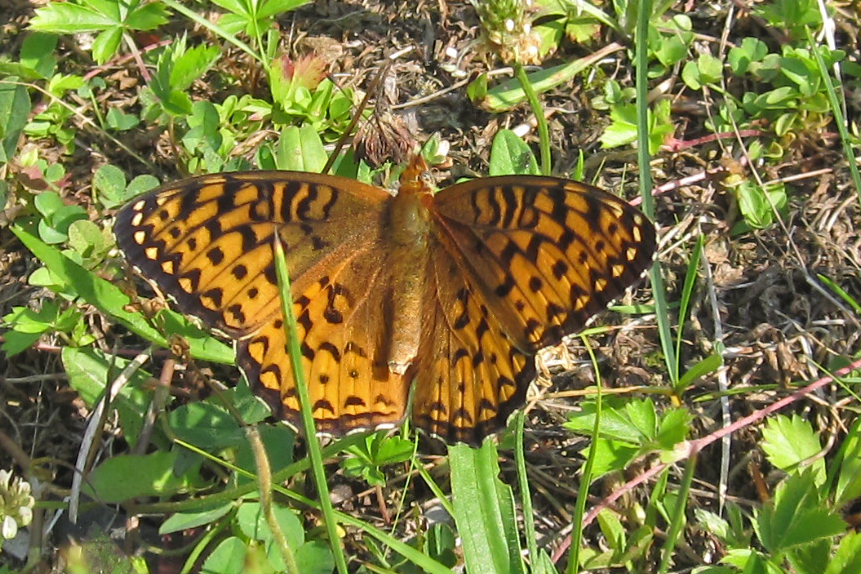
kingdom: Animalia
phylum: Arthropoda
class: Insecta
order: Lepidoptera
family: Nymphalidae
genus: Speyeria
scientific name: Speyeria atlantis
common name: Atlantis fritillary
